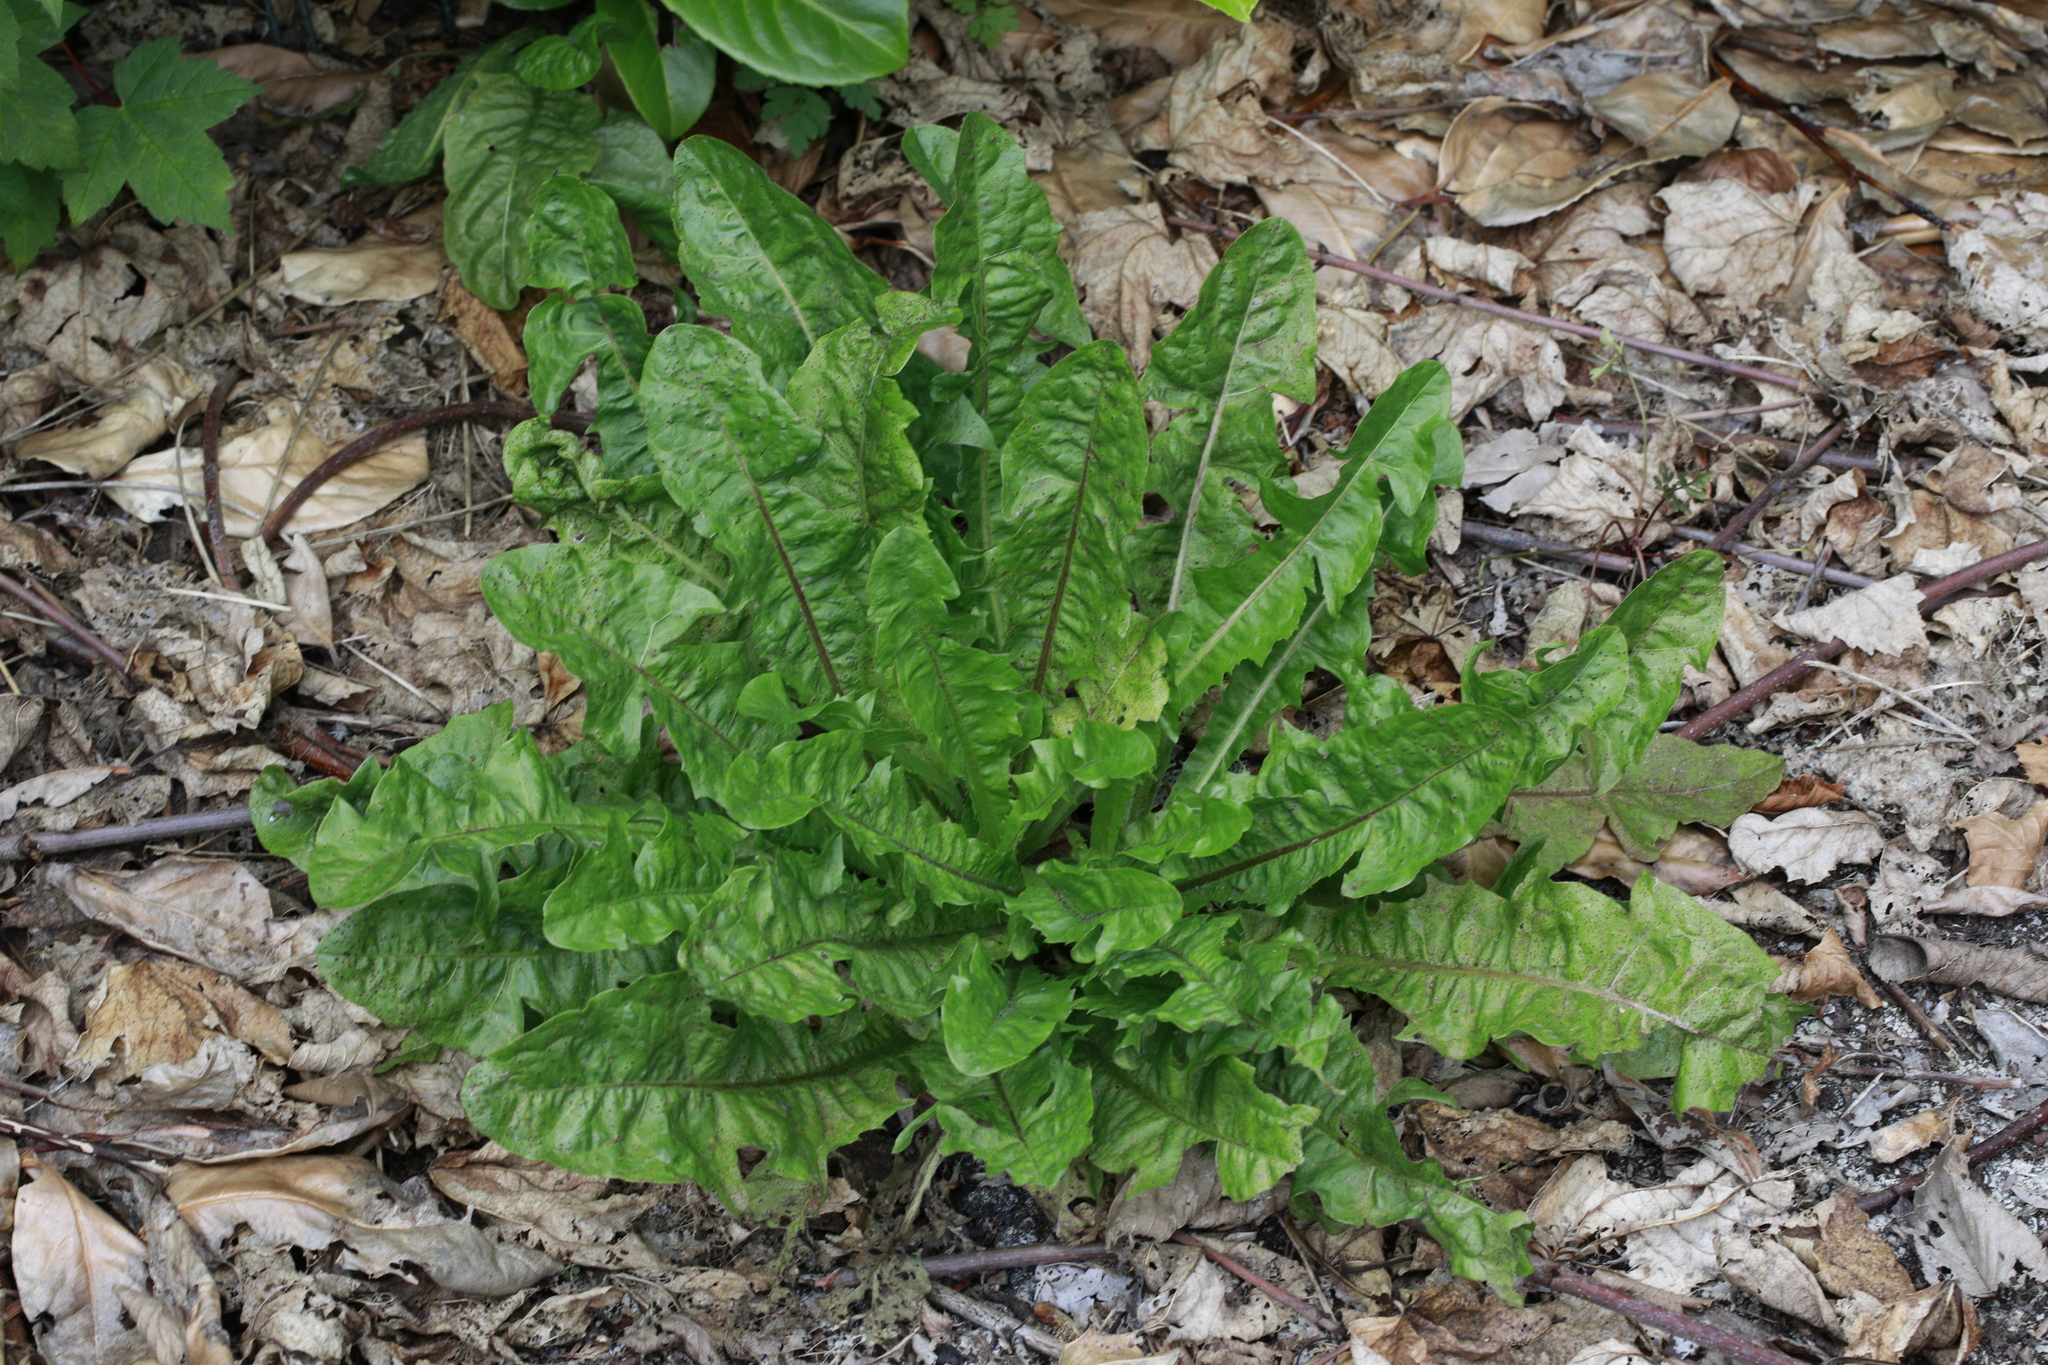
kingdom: Plantae
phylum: Tracheophyta
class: Magnoliopsida
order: Asterales
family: Asteraceae
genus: Taraxacum
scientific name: Taraxacum officinale
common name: Common dandelion
